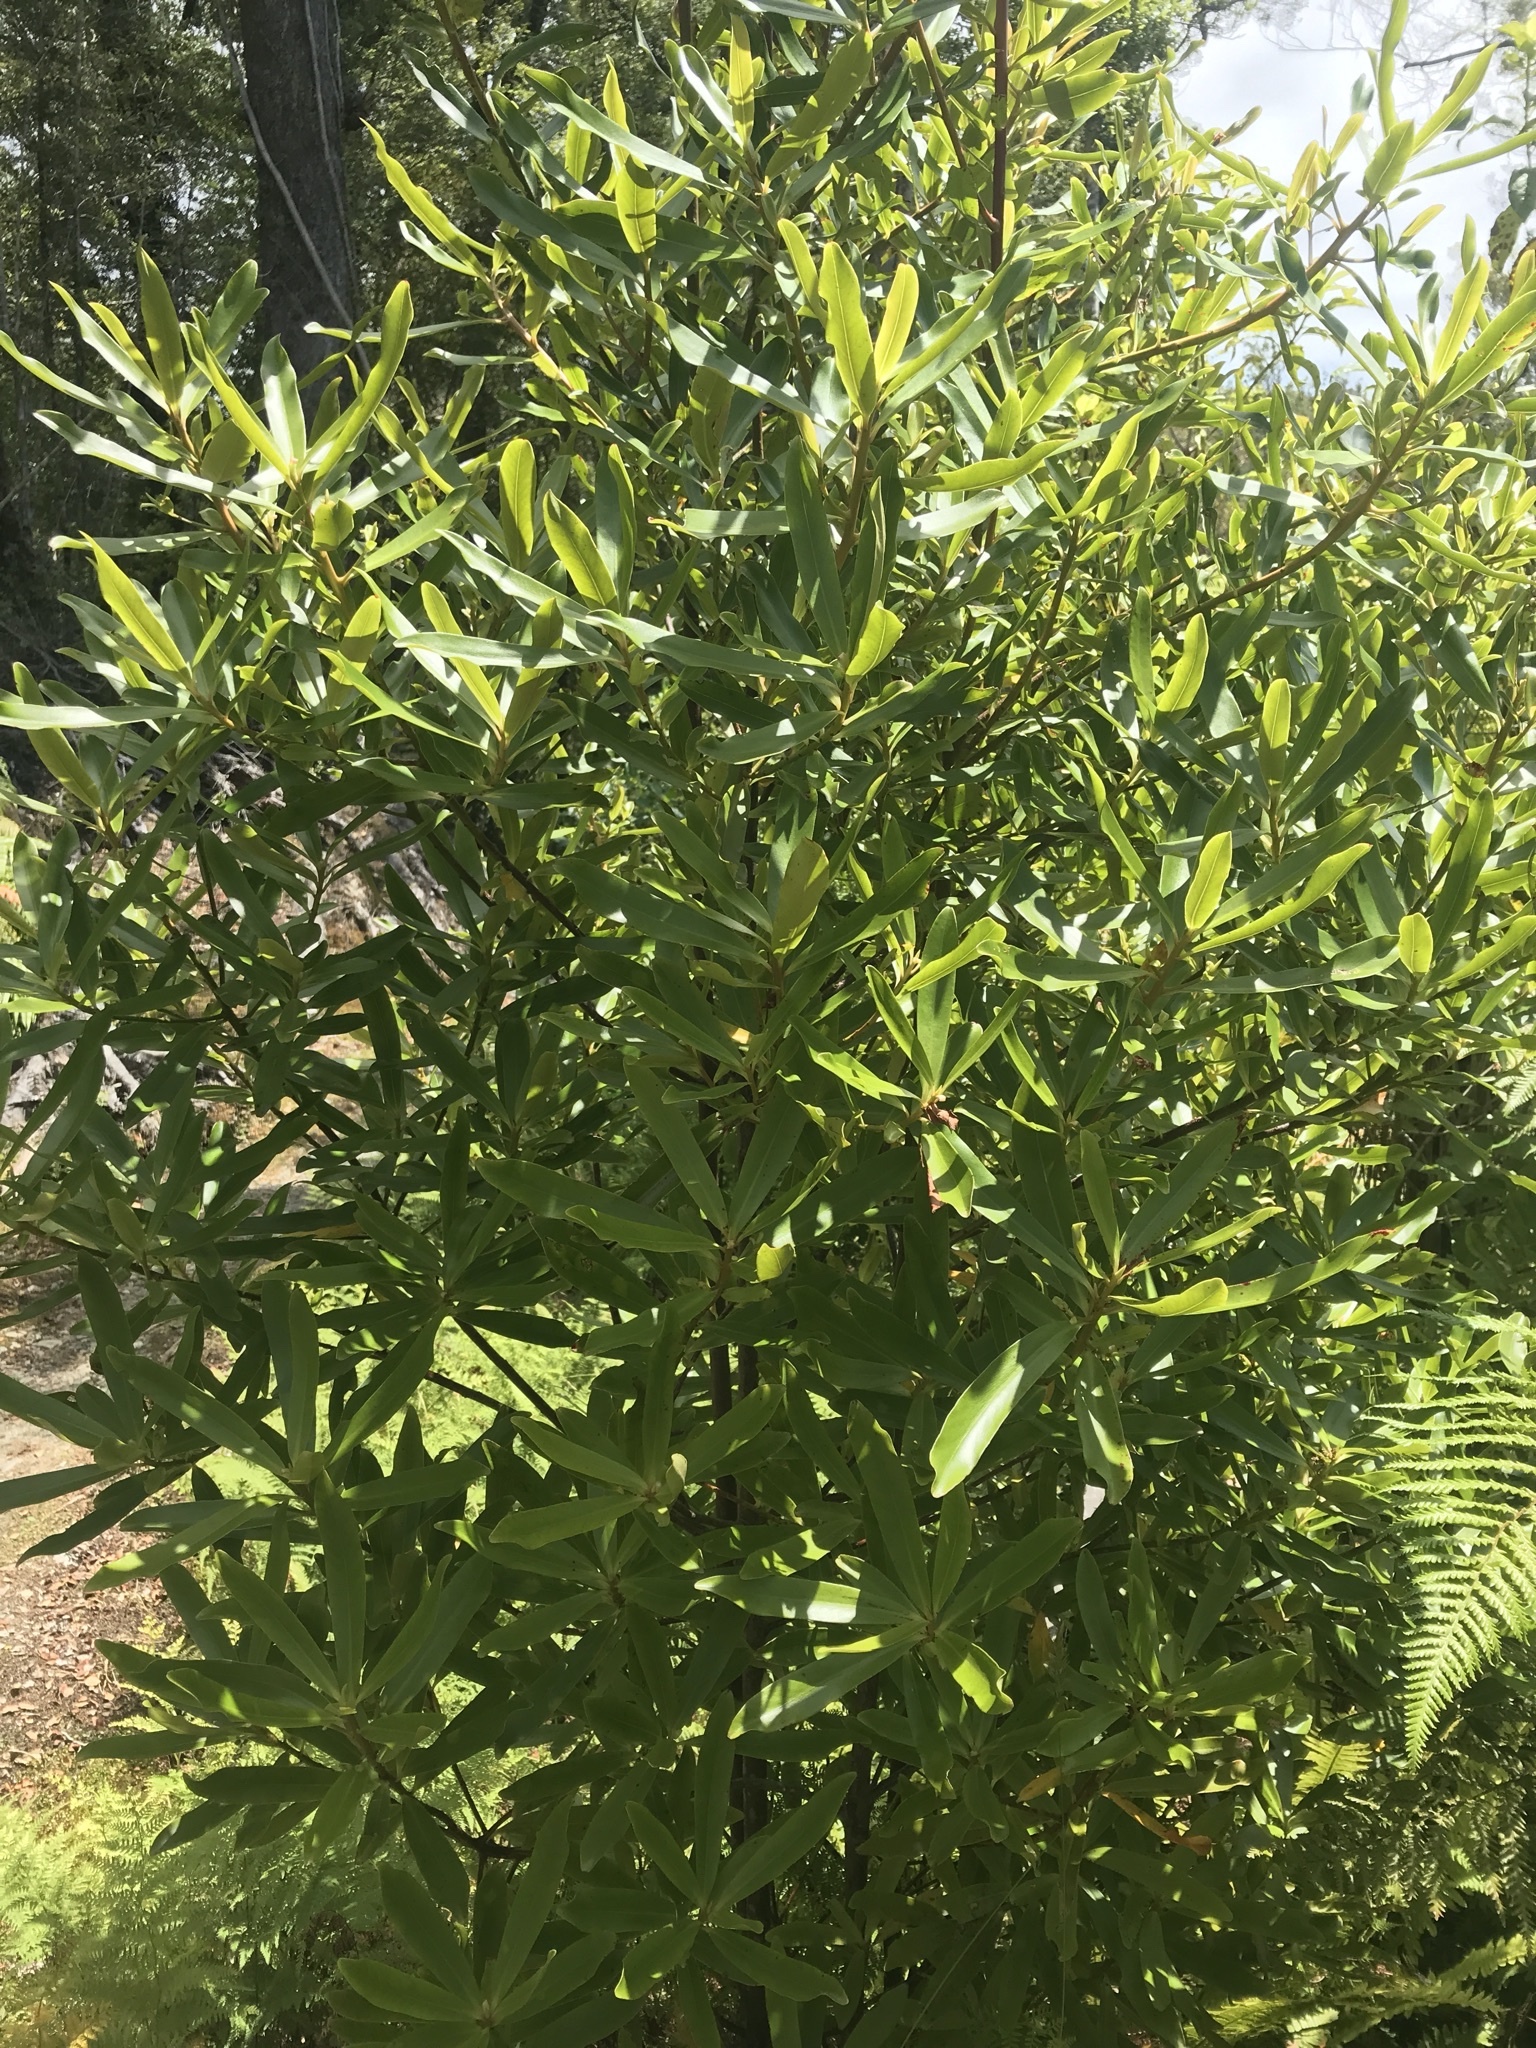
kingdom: Plantae
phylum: Tracheophyta
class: Magnoliopsida
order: Ericales
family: Primulaceae
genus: Myrsine
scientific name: Myrsine salicina
